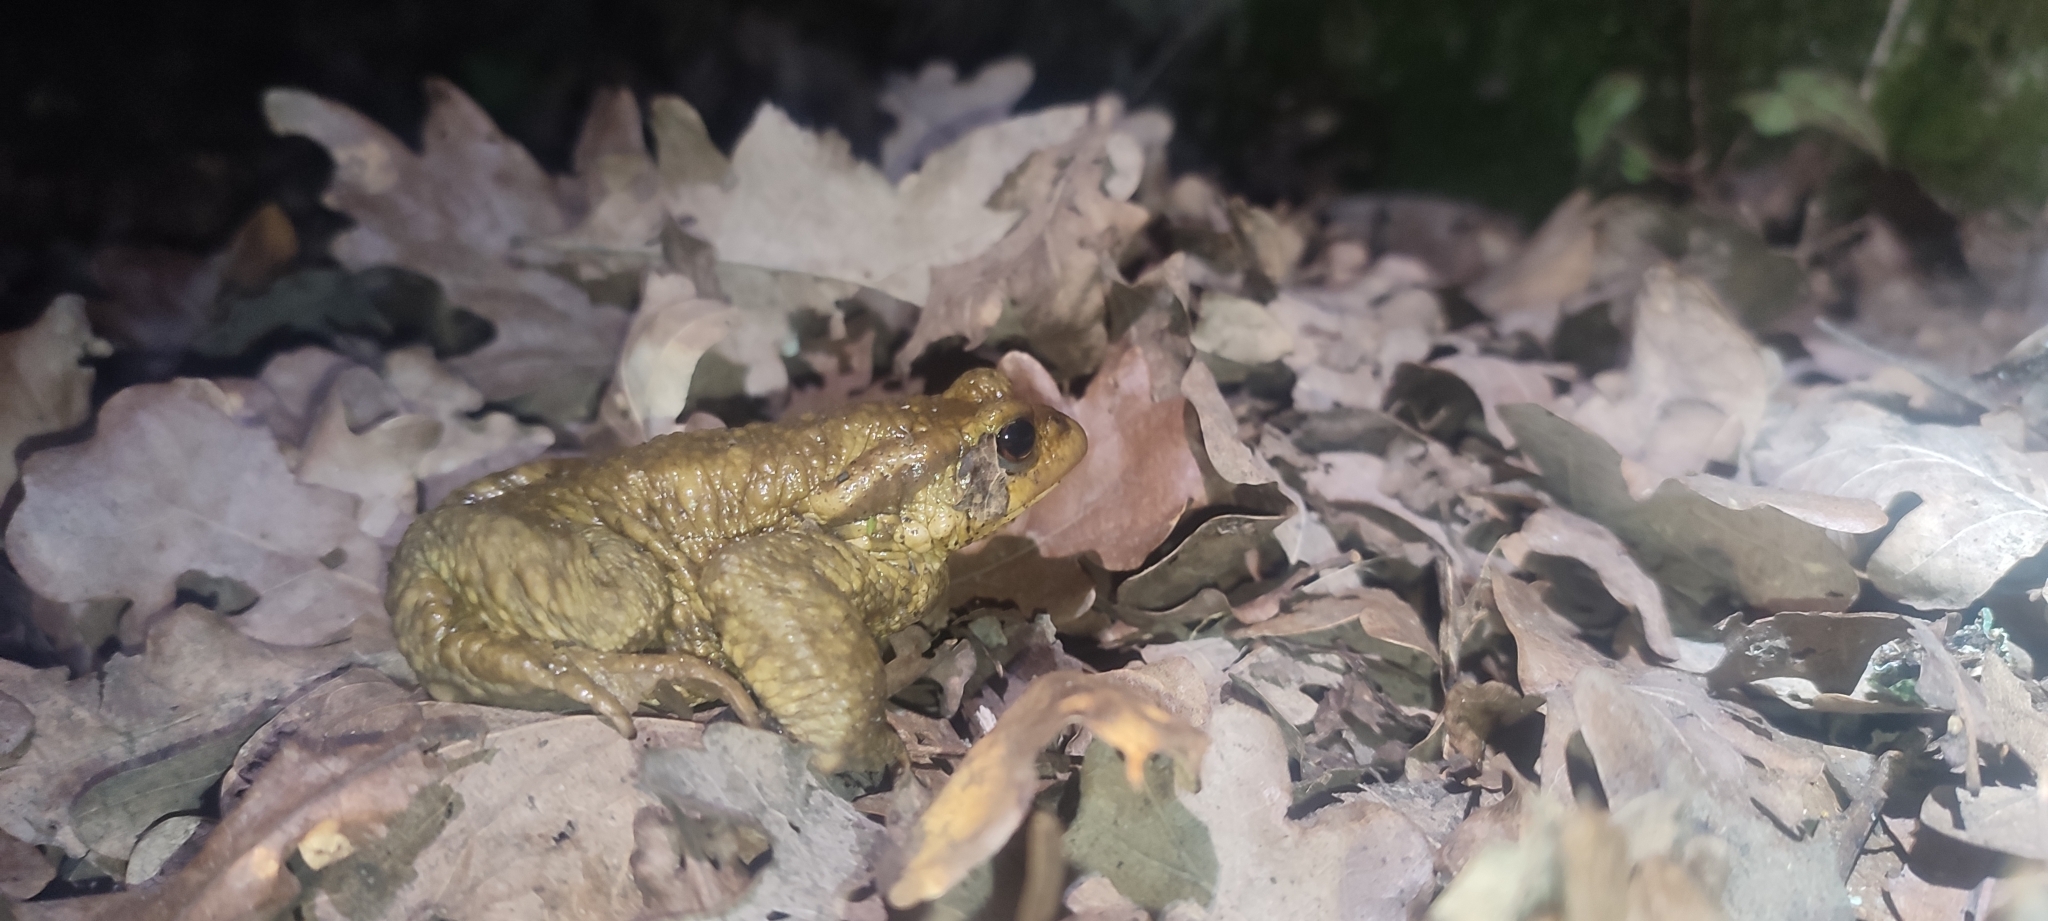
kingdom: Animalia
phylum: Chordata
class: Amphibia
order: Anura
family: Bufonidae
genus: Bufo
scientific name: Bufo spinosus
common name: Western common toad
